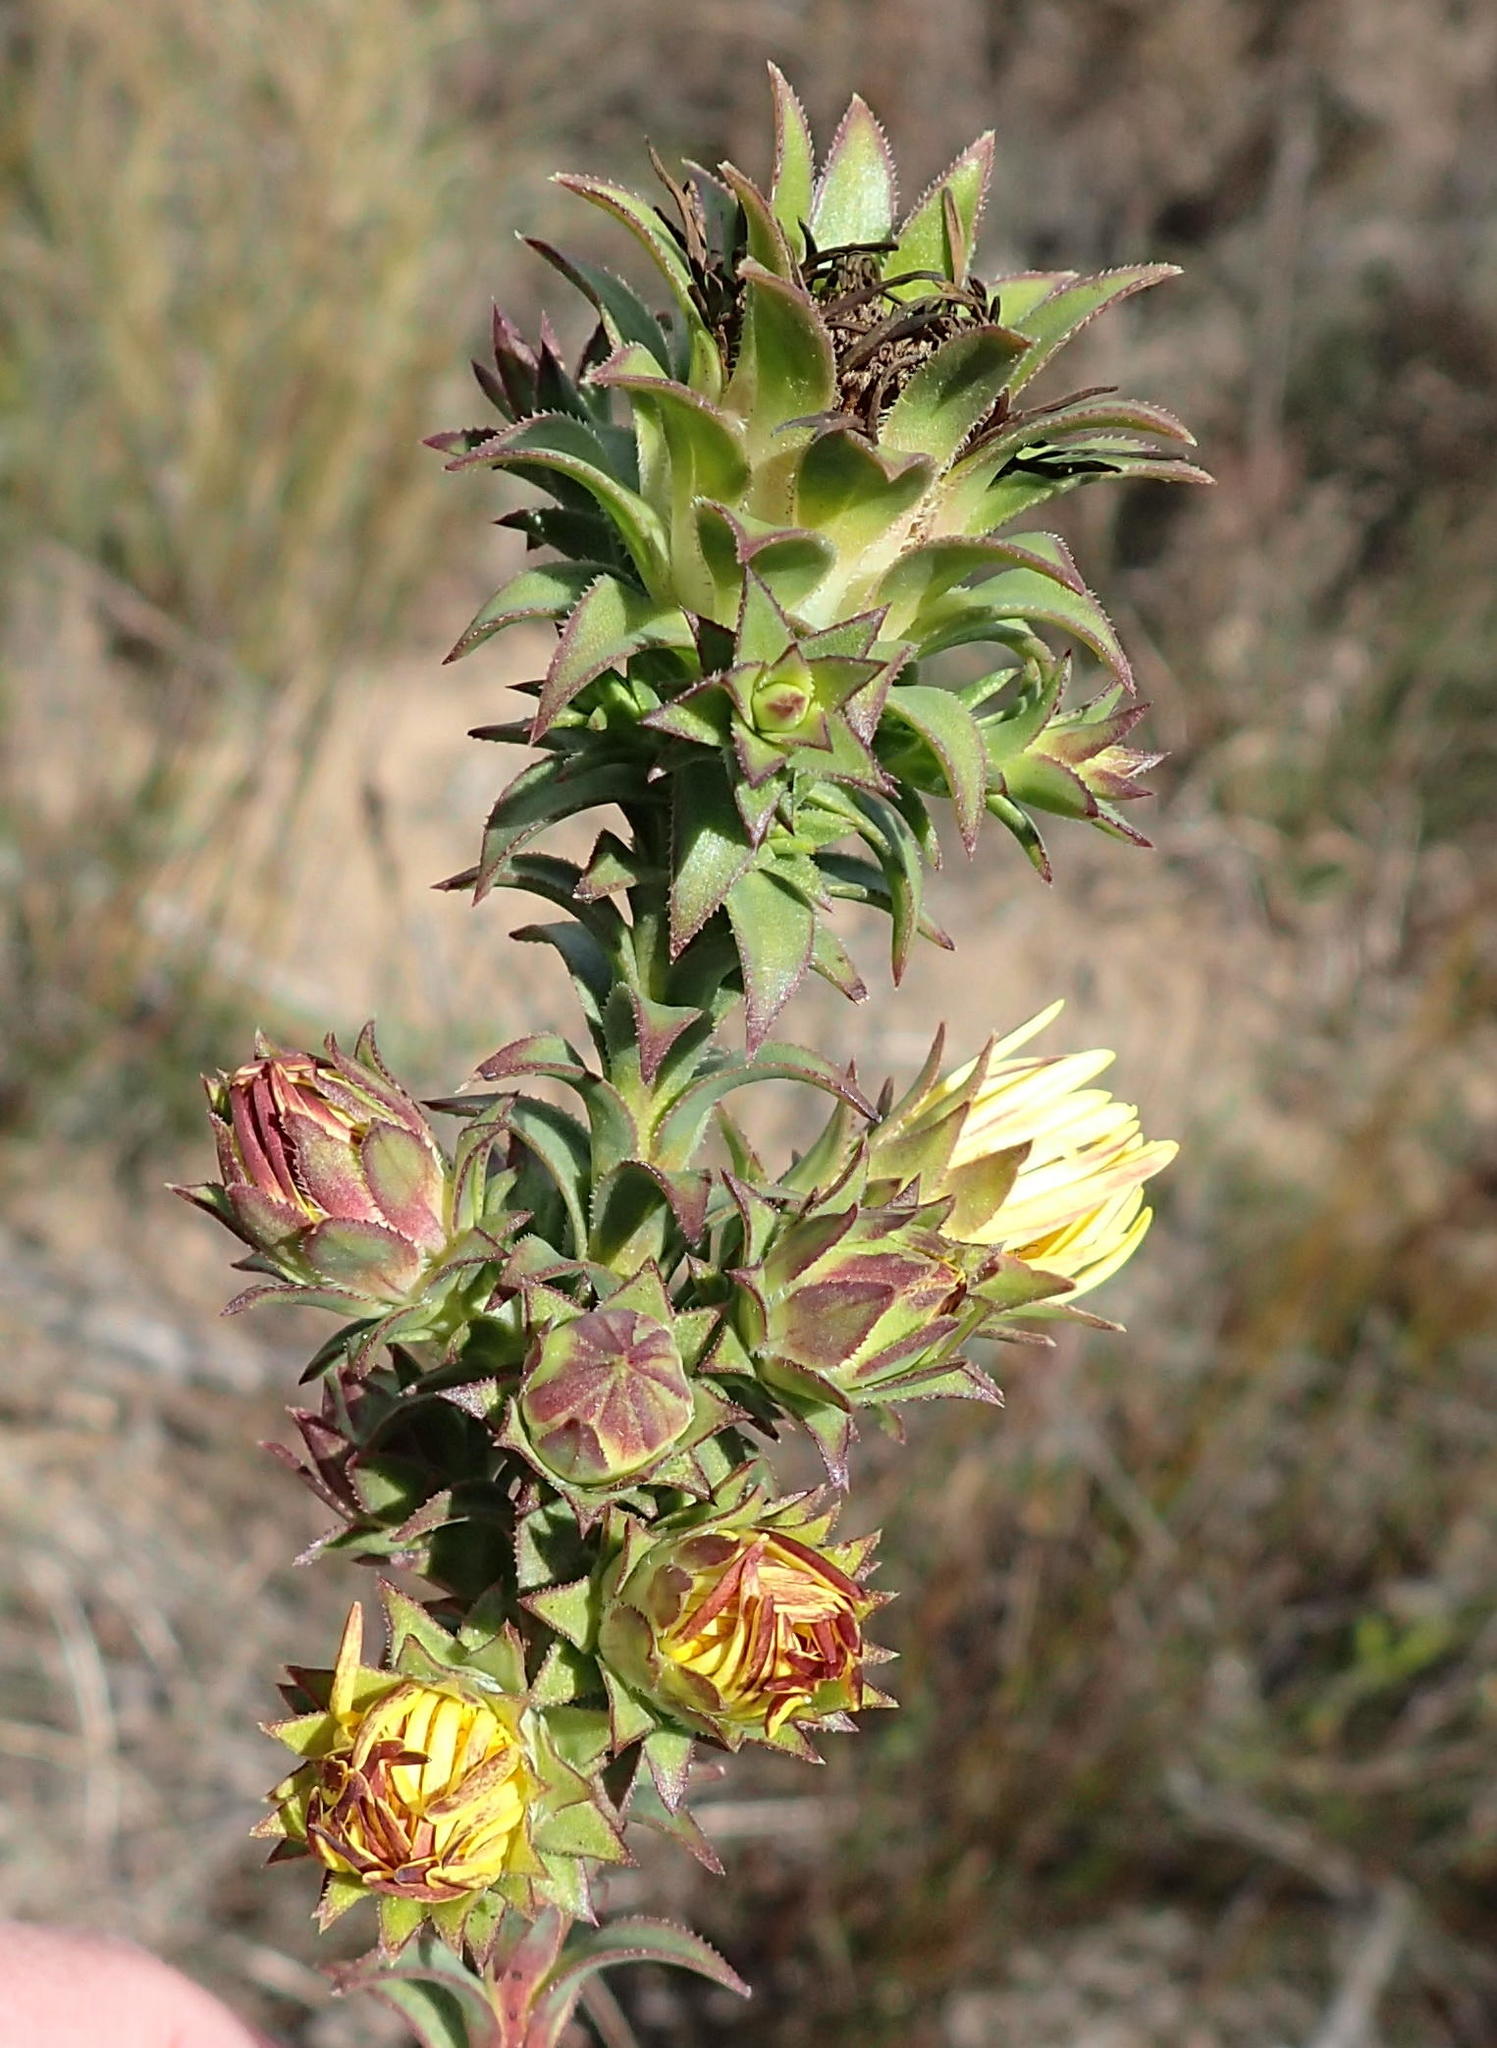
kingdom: Plantae
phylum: Tracheophyta
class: Magnoliopsida
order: Asterales
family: Asteraceae
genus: Oedera
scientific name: Oedera imbricata
